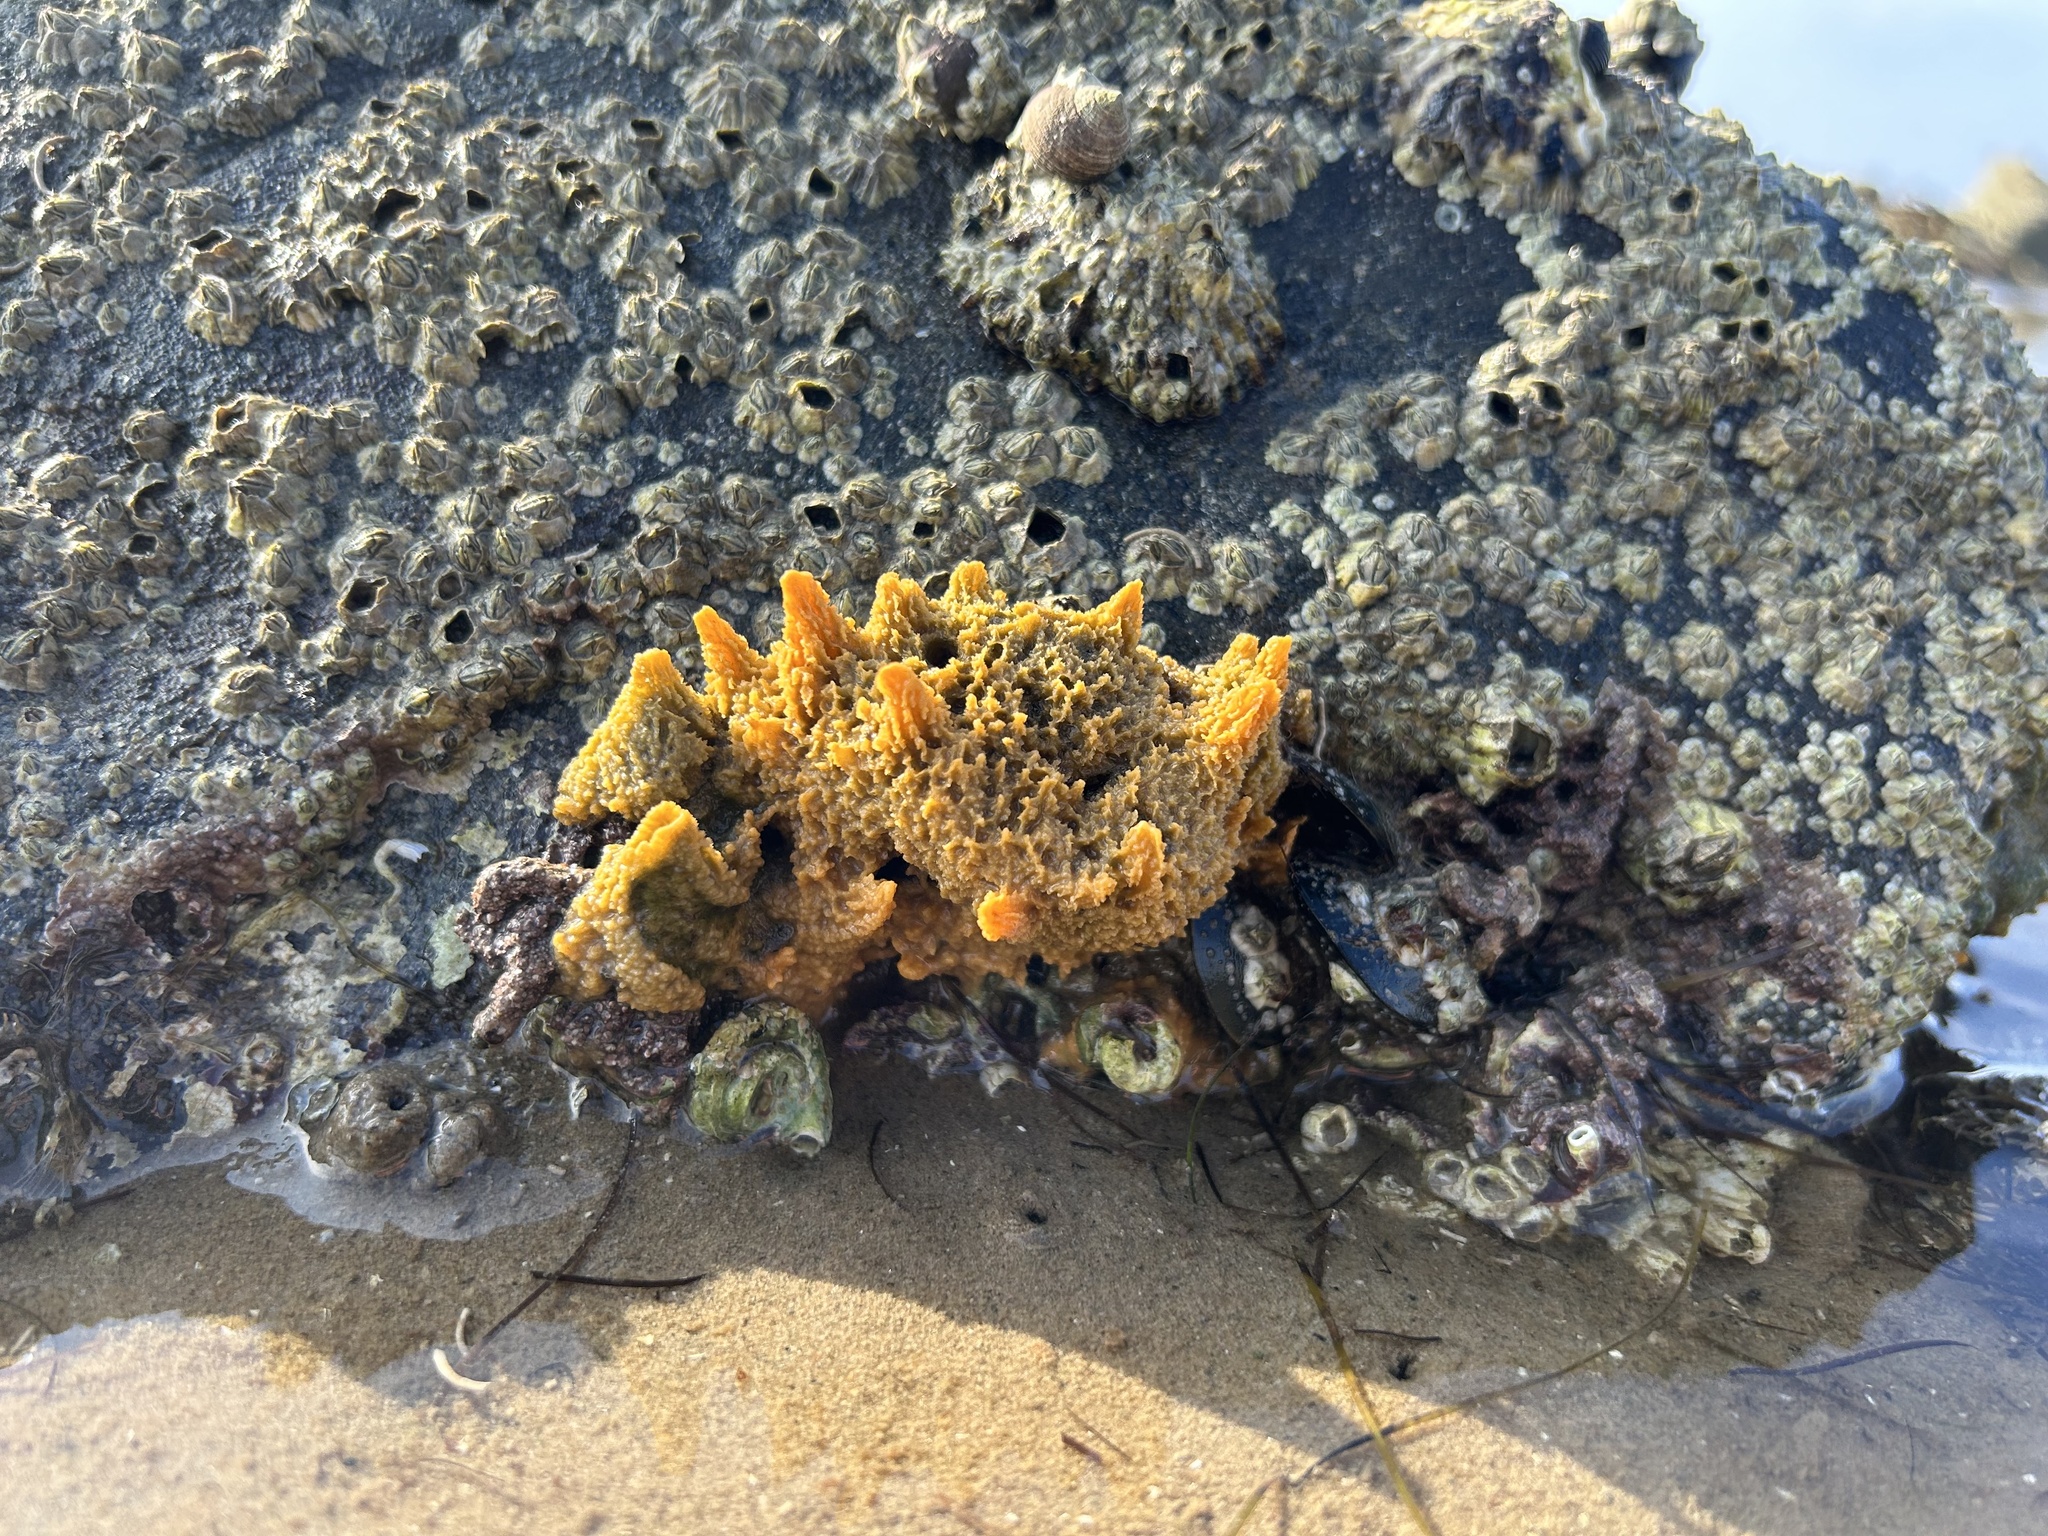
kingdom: Animalia
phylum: Porifera
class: Demospongiae
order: Suberitida
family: Halichondriidae
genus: Hymeniacidon
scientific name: Hymeniacidon perlevis
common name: Crumb-of-bread sponge
